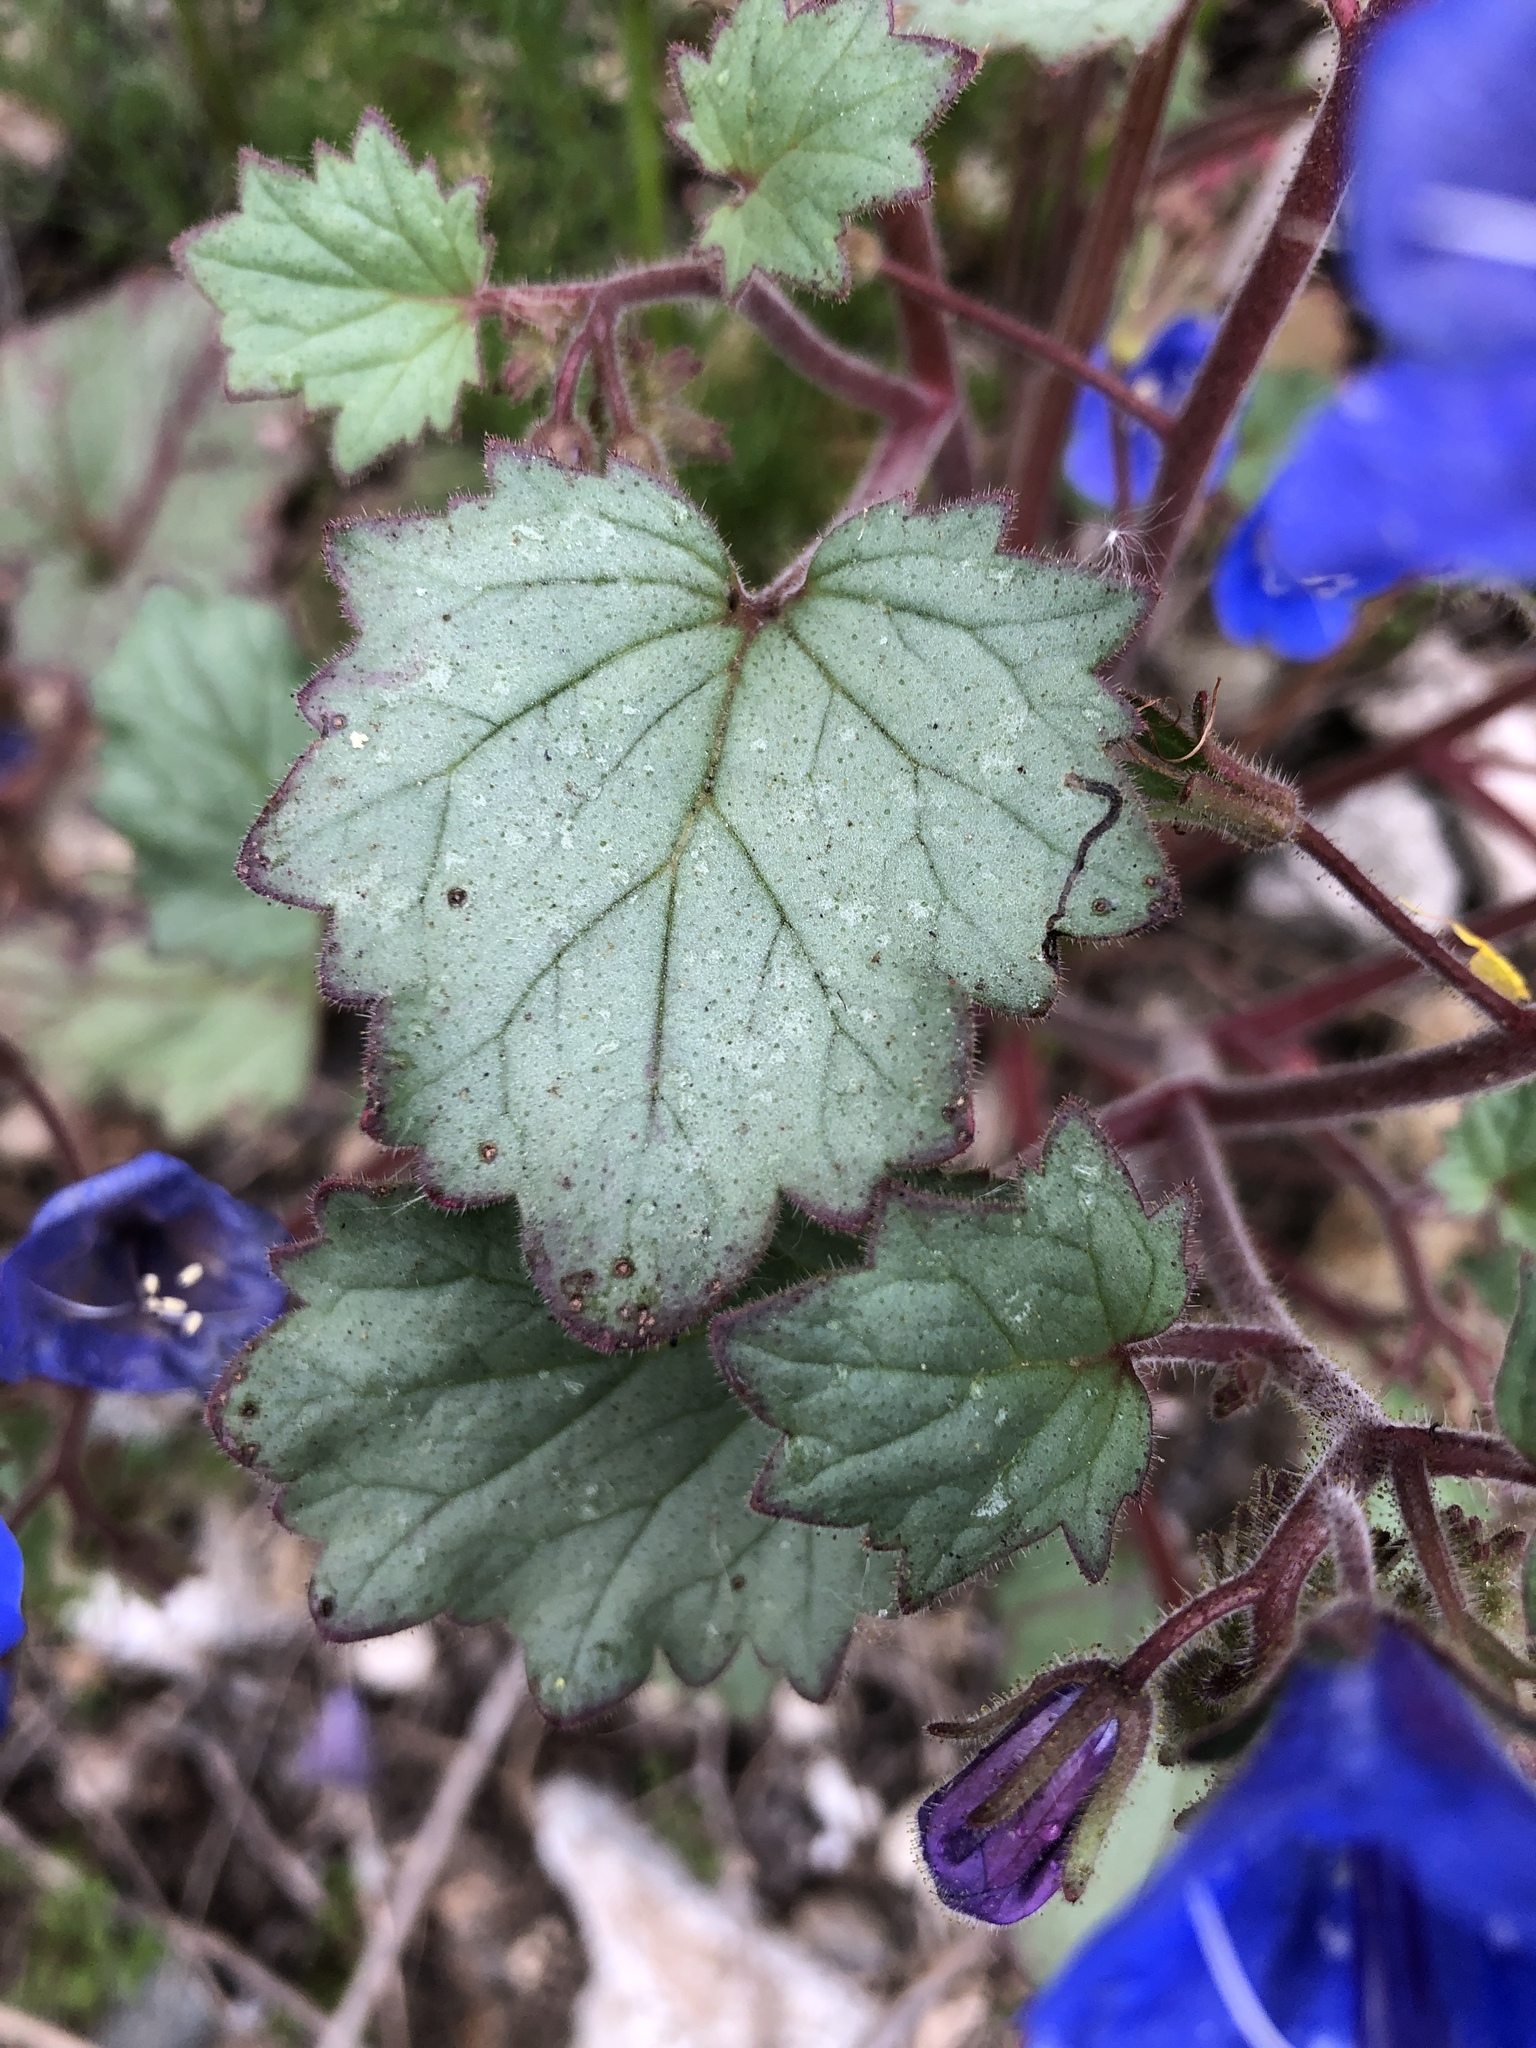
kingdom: Plantae
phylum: Tracheophyta
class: Magnoliopsida
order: Boraginales
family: Hydrophyllaceae
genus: Phacelia
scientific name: Phacelia campanularia
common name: California bluebell
